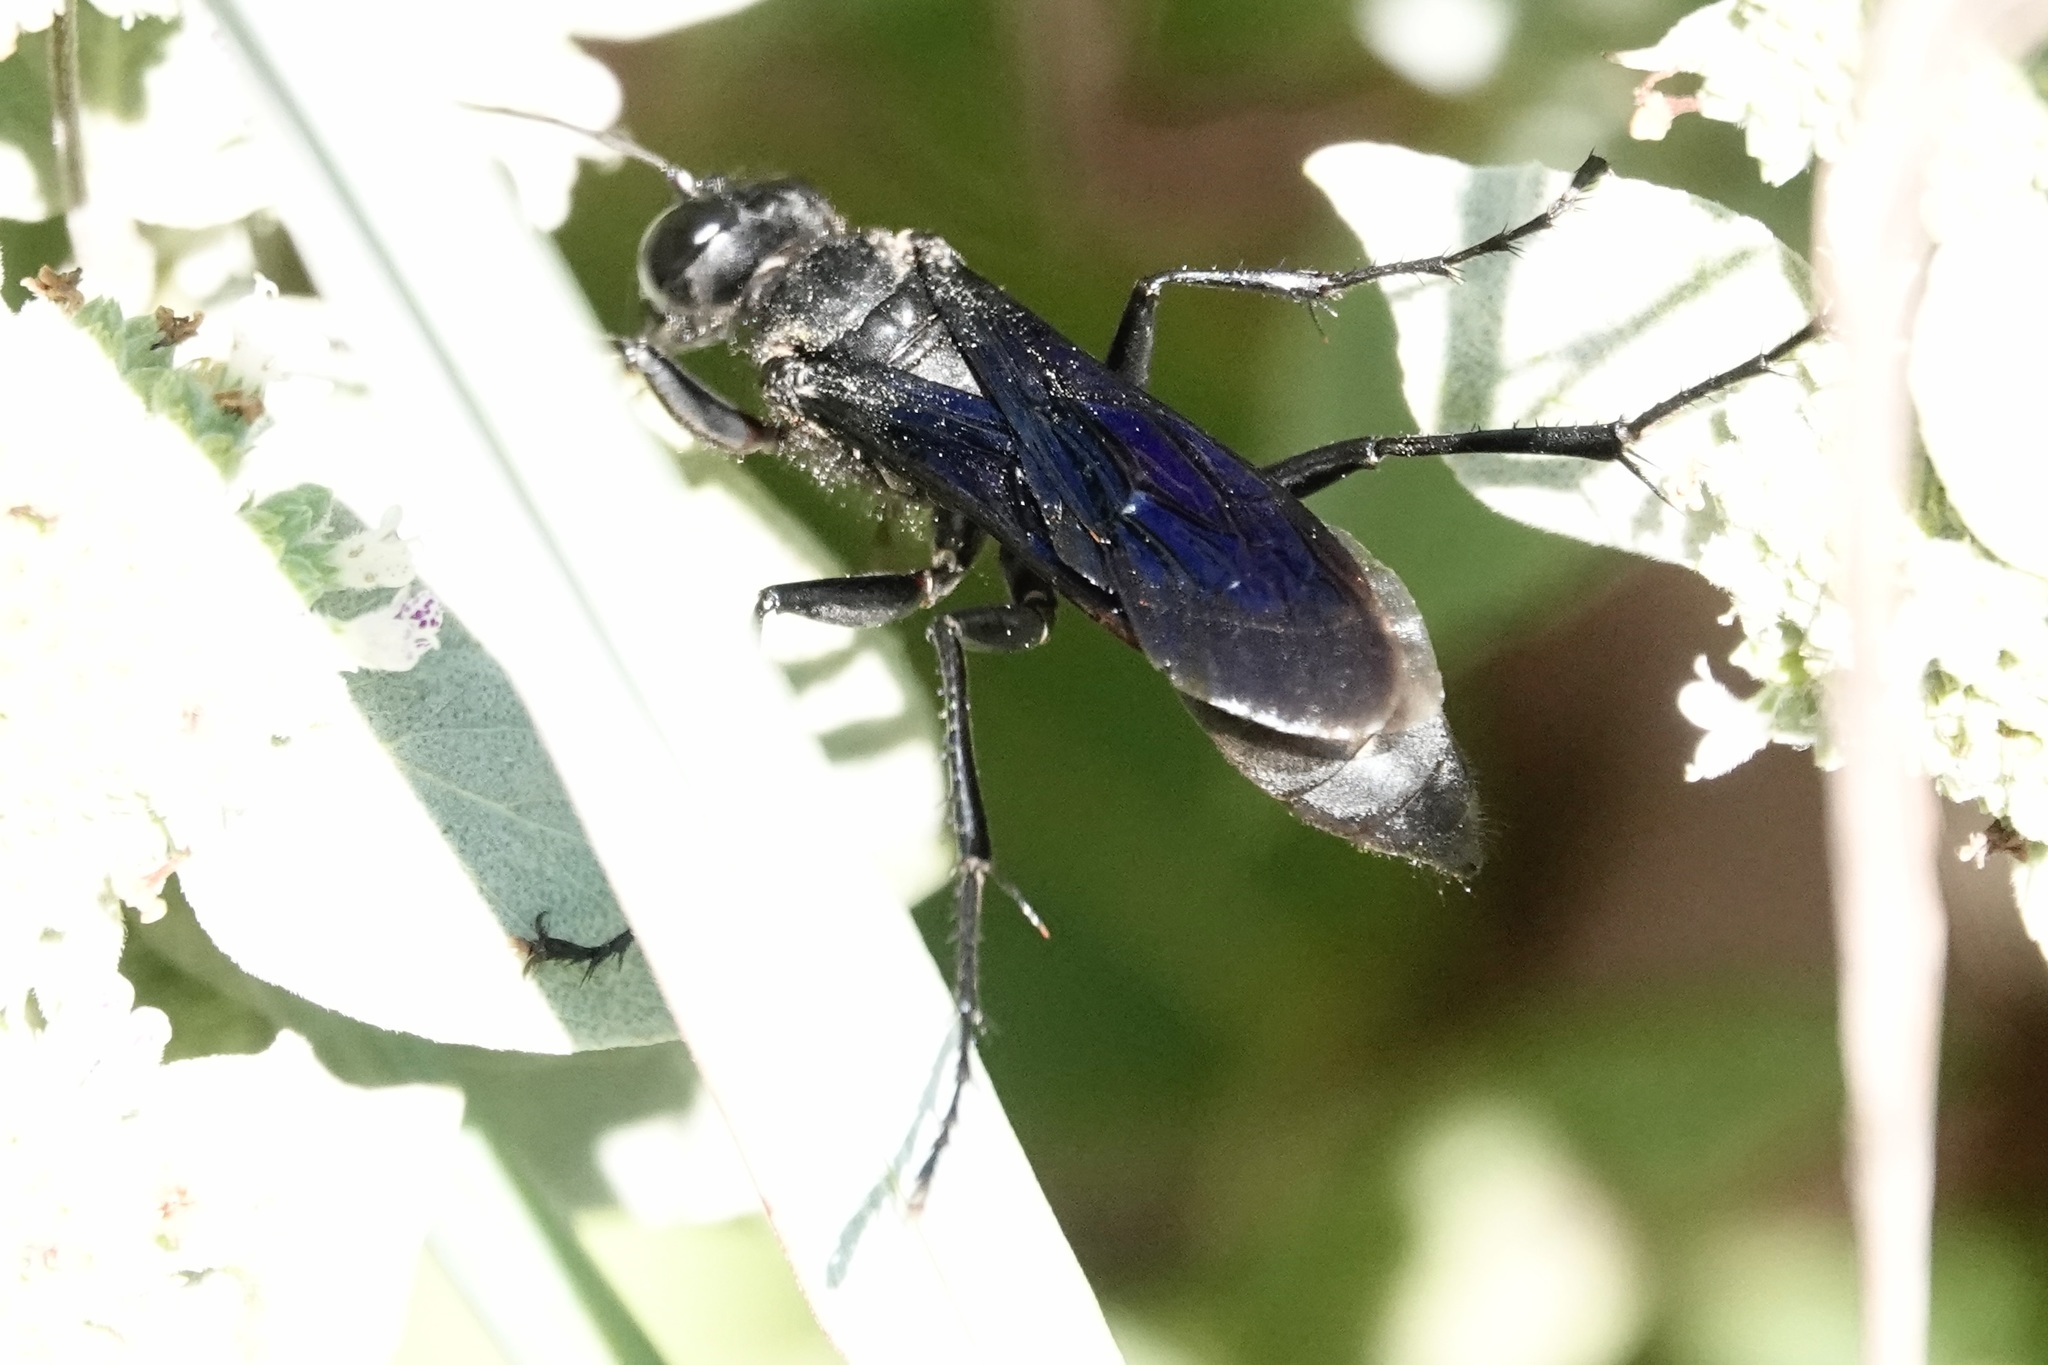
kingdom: Animalia
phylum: Arthropoda
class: Insecta
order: Hymenoptera
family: Sphecidae
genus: Sphex
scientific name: Sphex pensylvanicus
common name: Great black digger wasp
